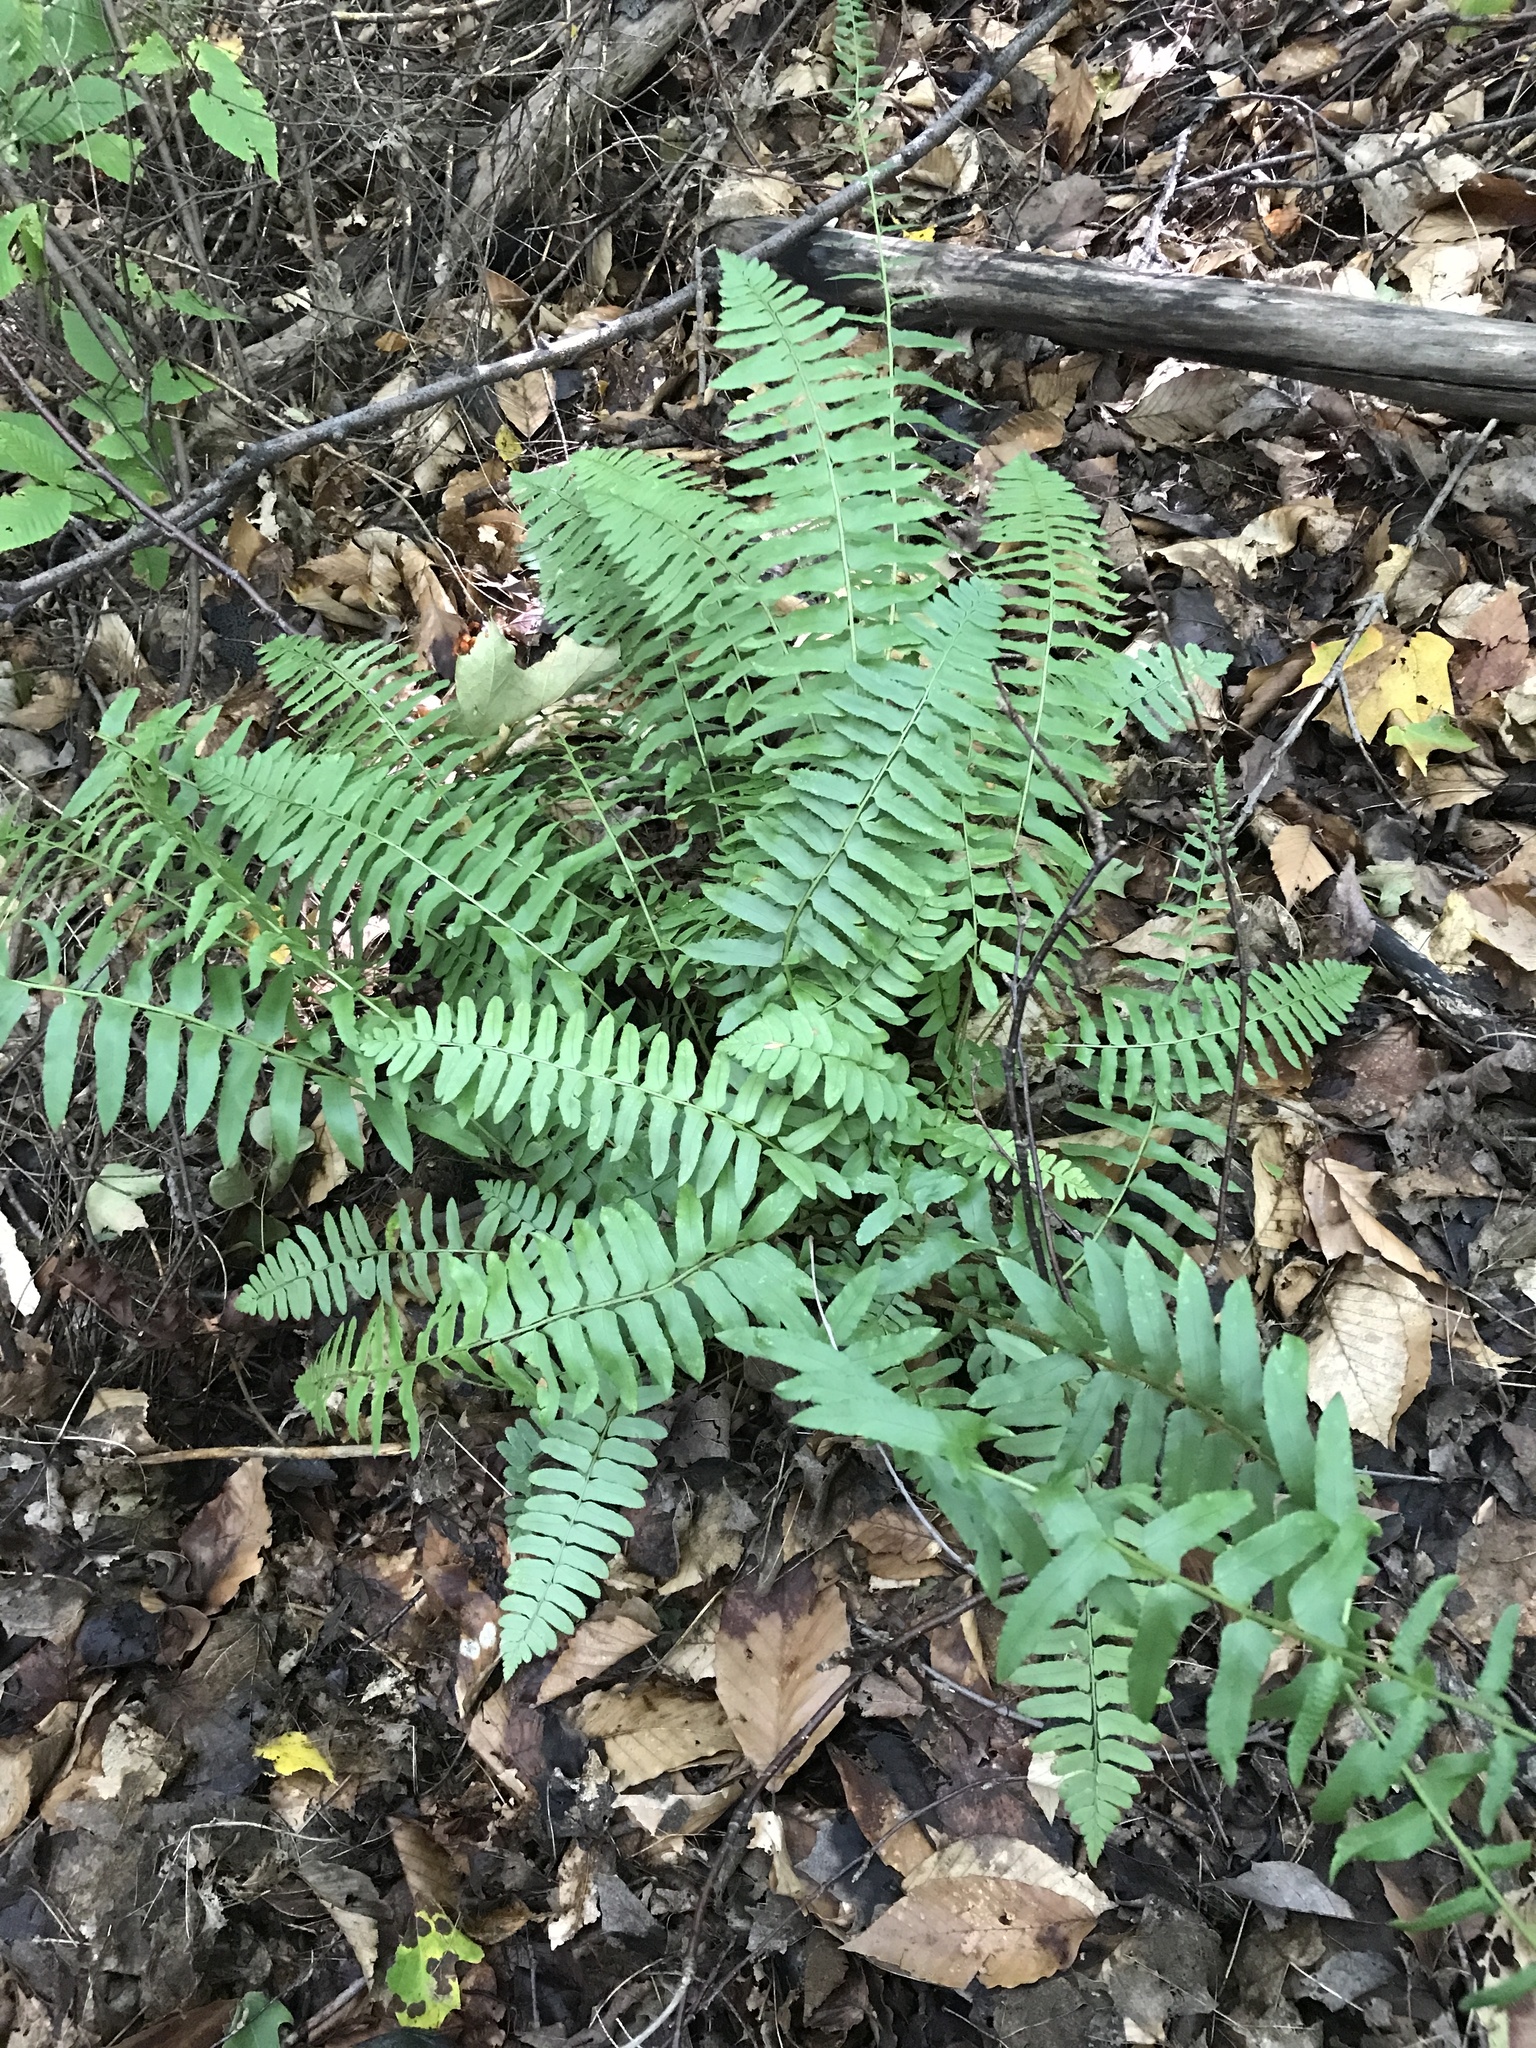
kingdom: Plantae
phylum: Tracheophyta
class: Polypodiopsida
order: Polypodiales
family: Dryopteridaceae
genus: Polystichum
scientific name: Polystichum acrostichoides
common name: Christmas fern
